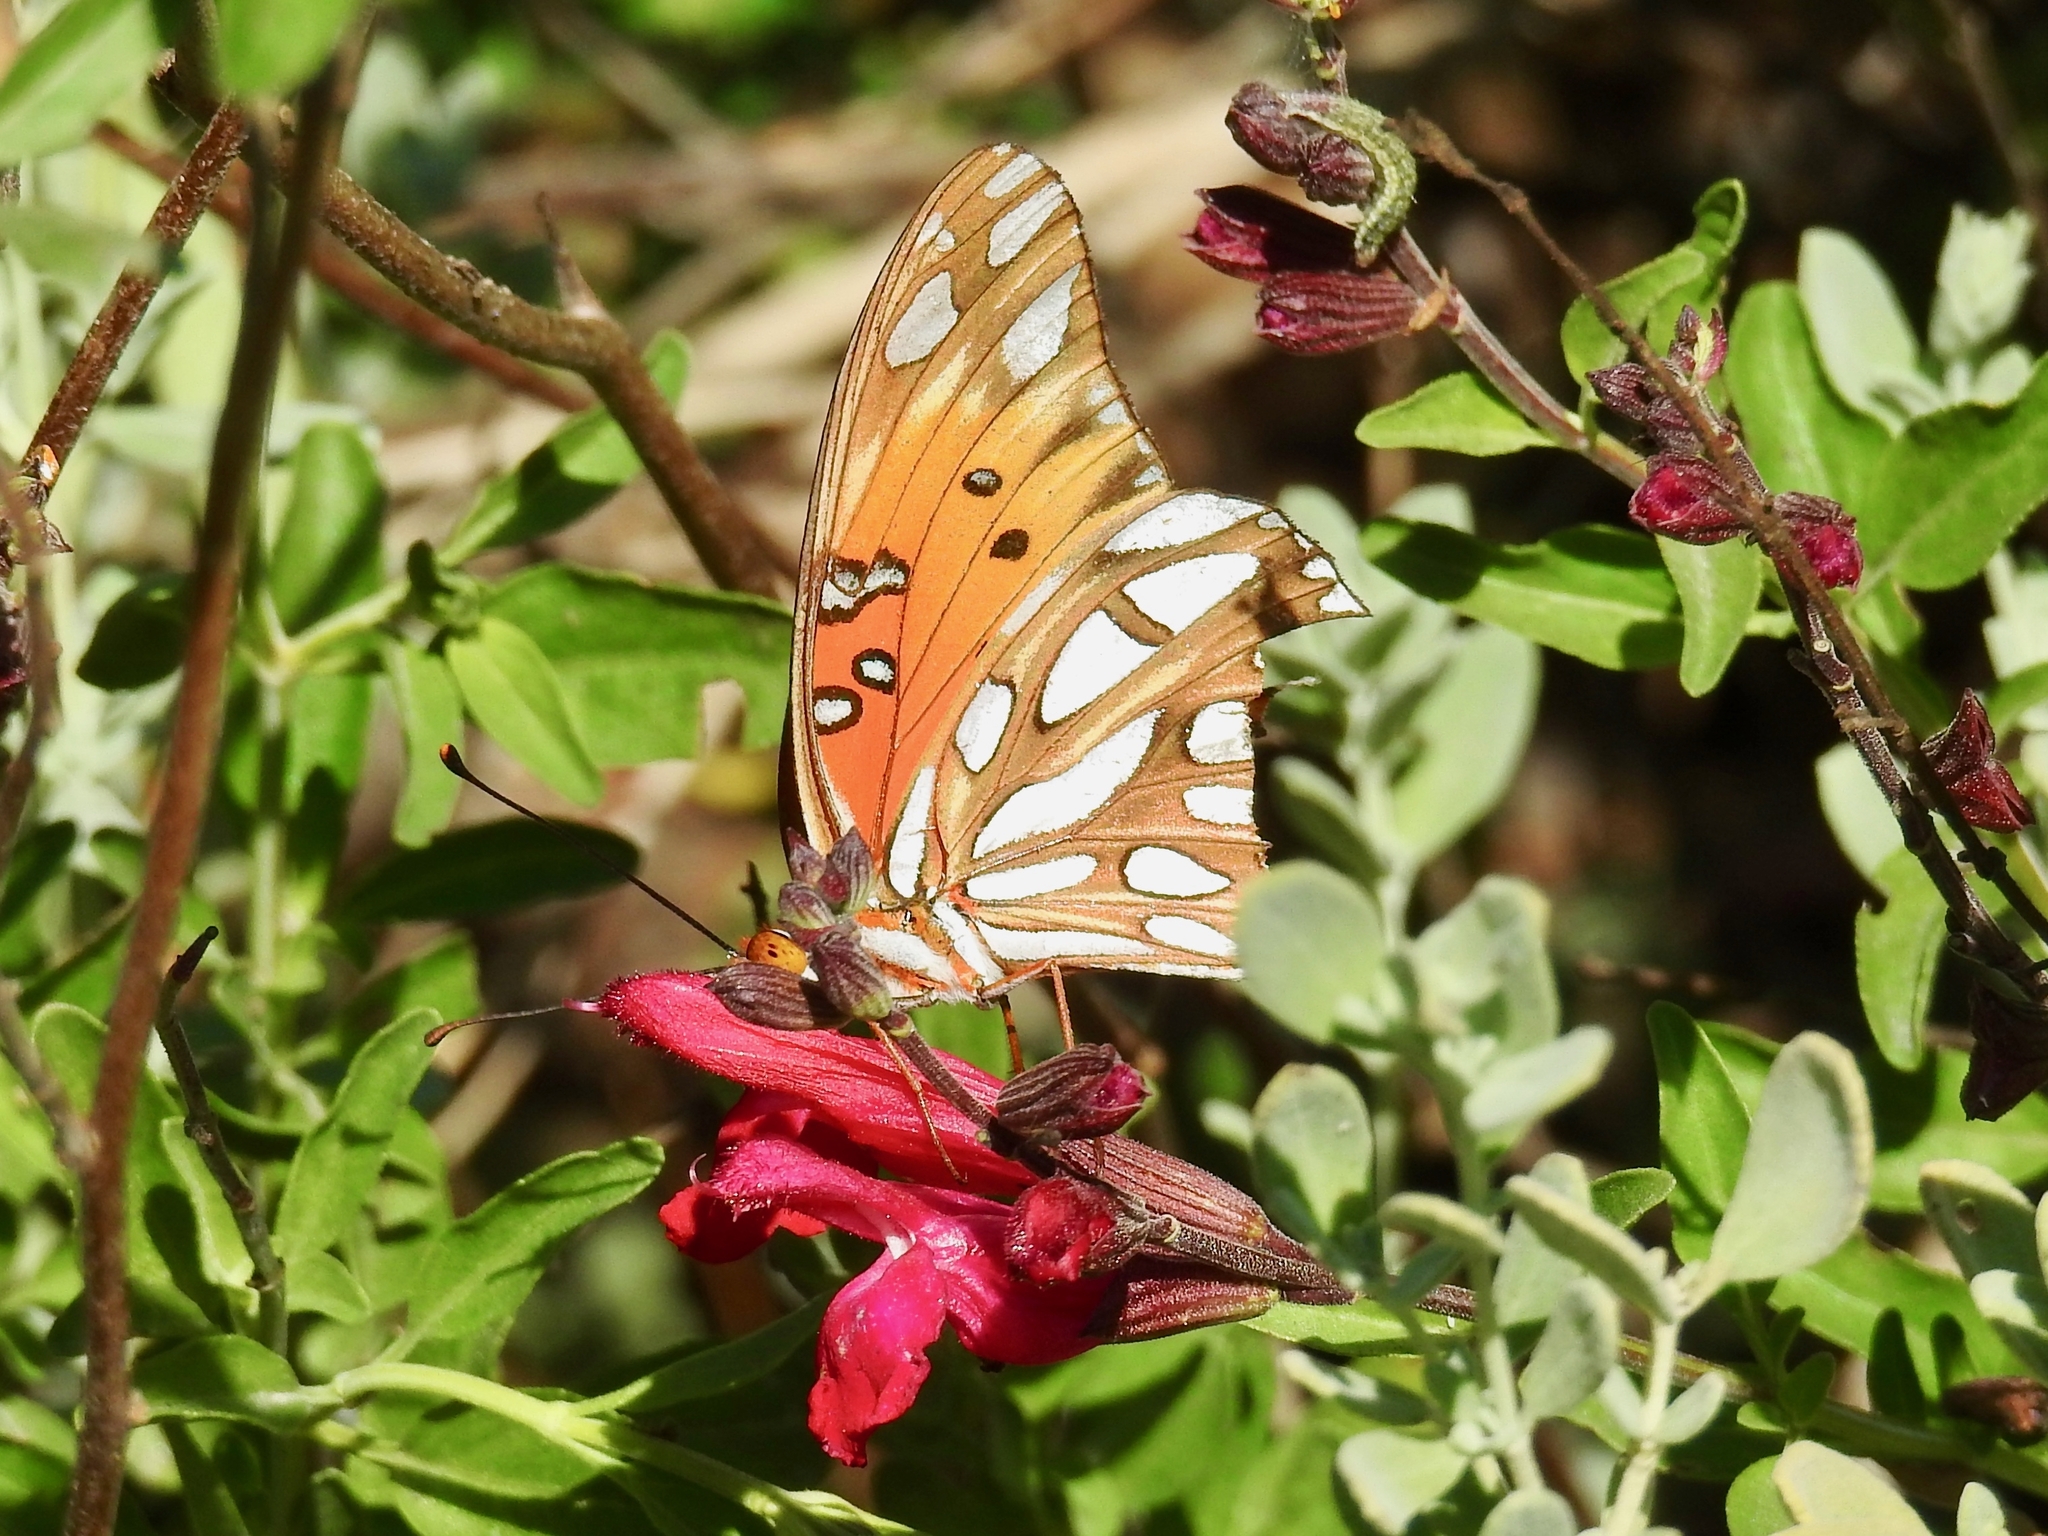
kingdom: Animalia
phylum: Arthropoda
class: Insecta
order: Lepidoptera
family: Nymphalidae
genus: Dione
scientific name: Dione vanillae
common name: Gulf fritillary
